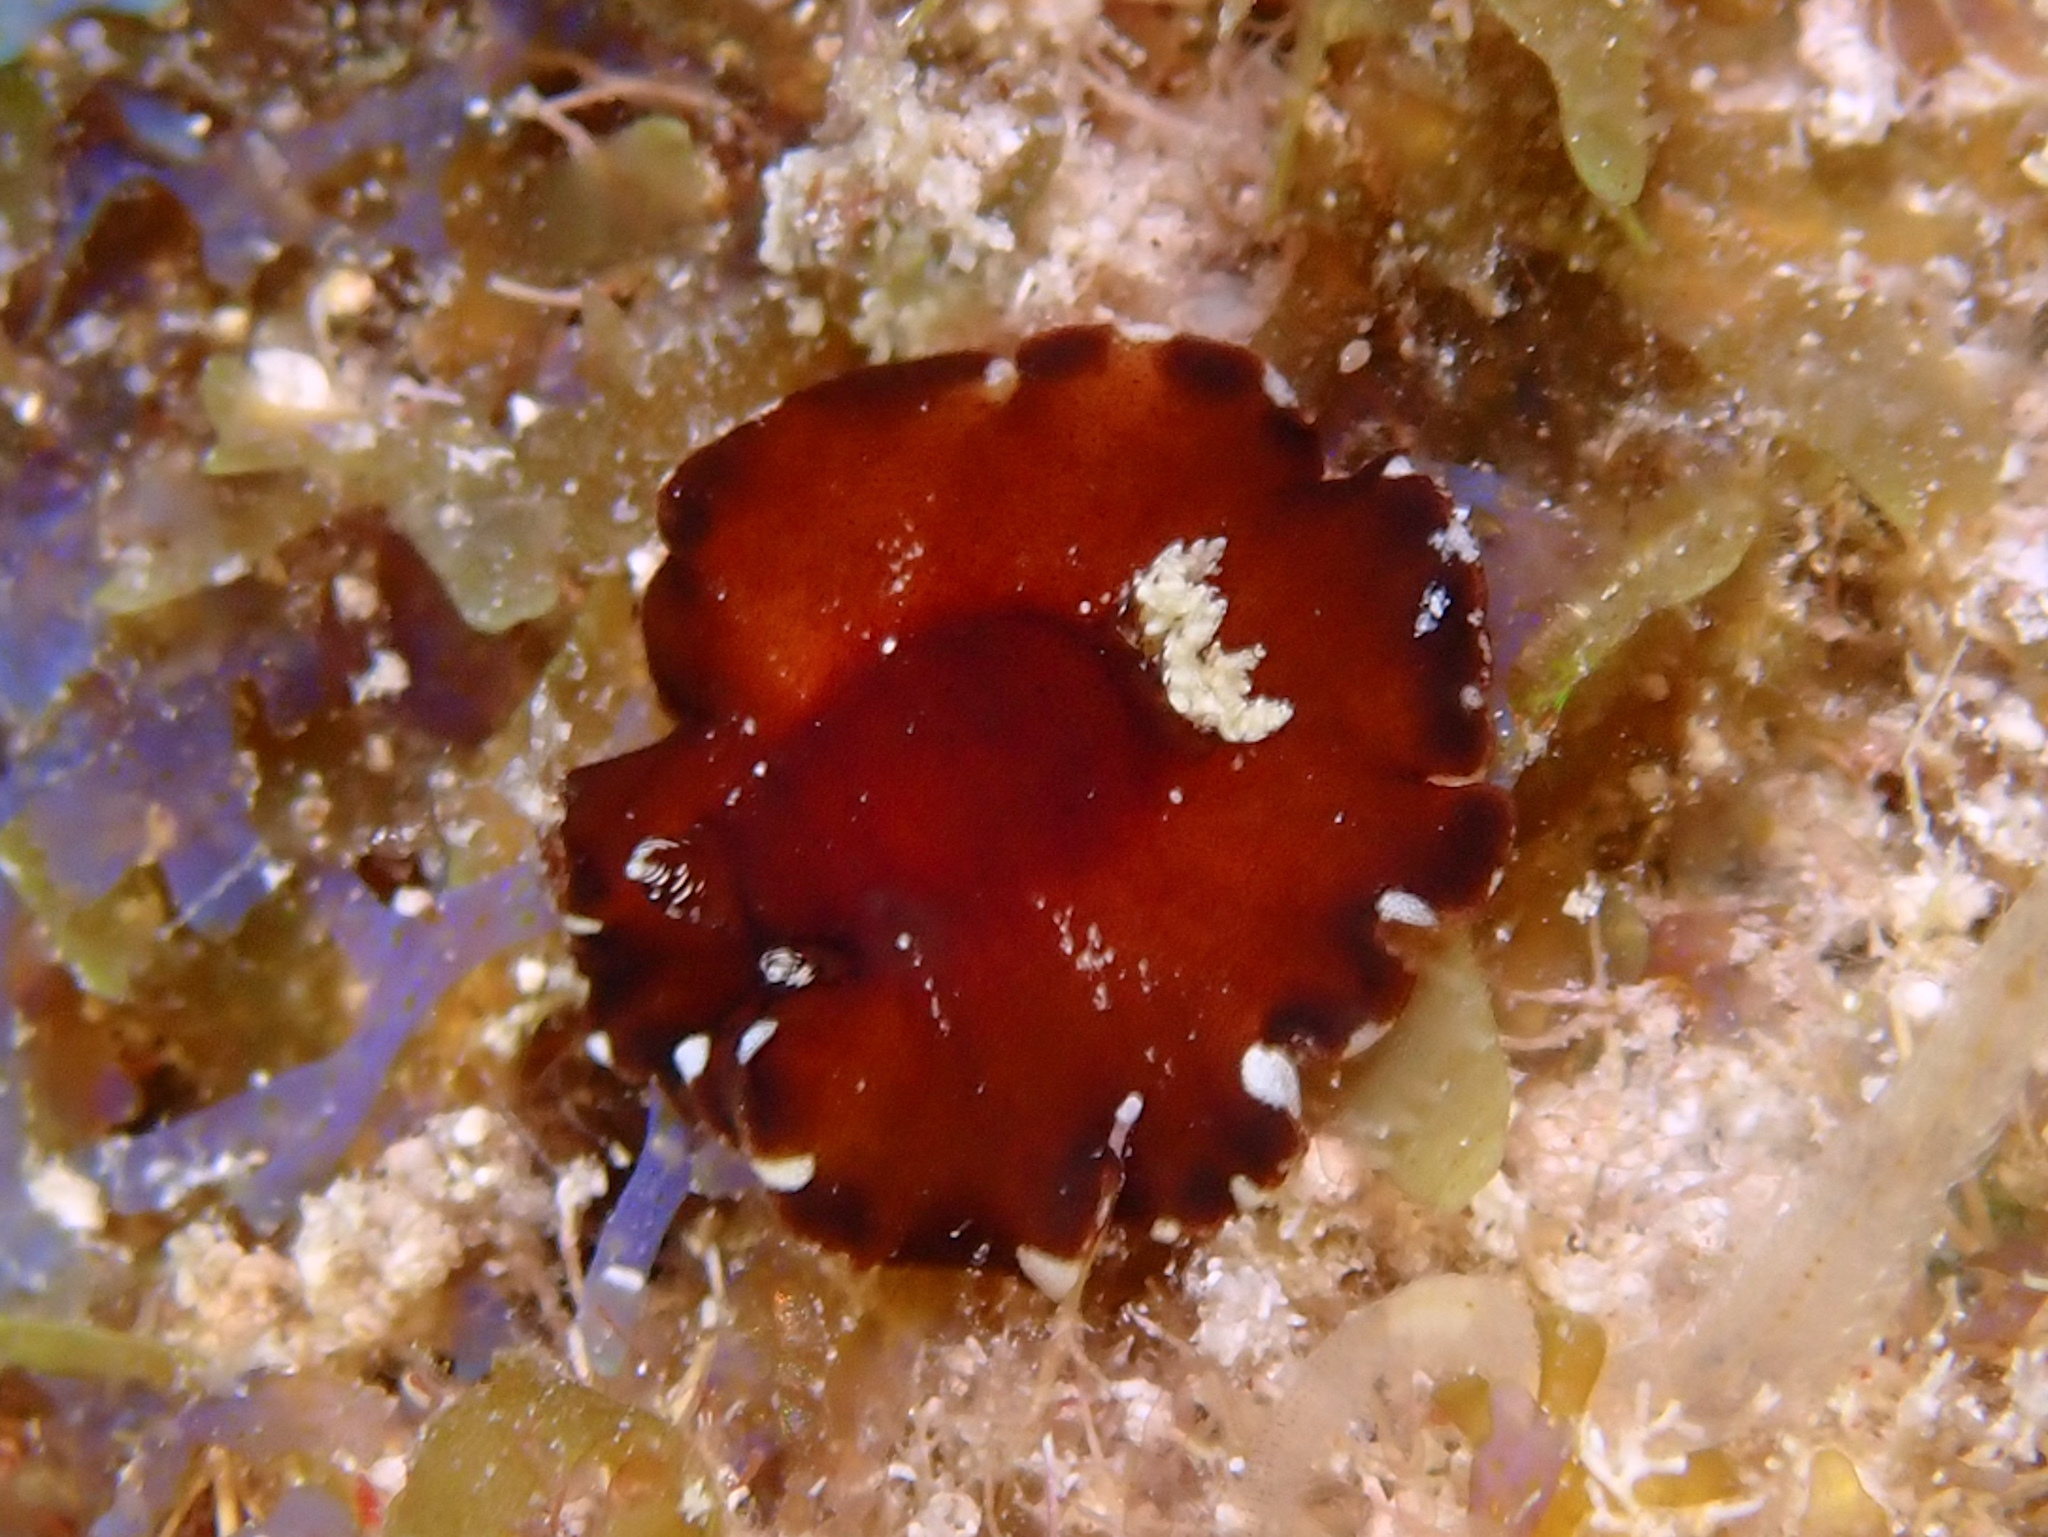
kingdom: Animalia
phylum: Mollusca
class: Gastropoda
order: Nudibranchia
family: Discodorididae
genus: Platydoris
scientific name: Platydoris angustipes
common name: Broleather-backed platydoris
